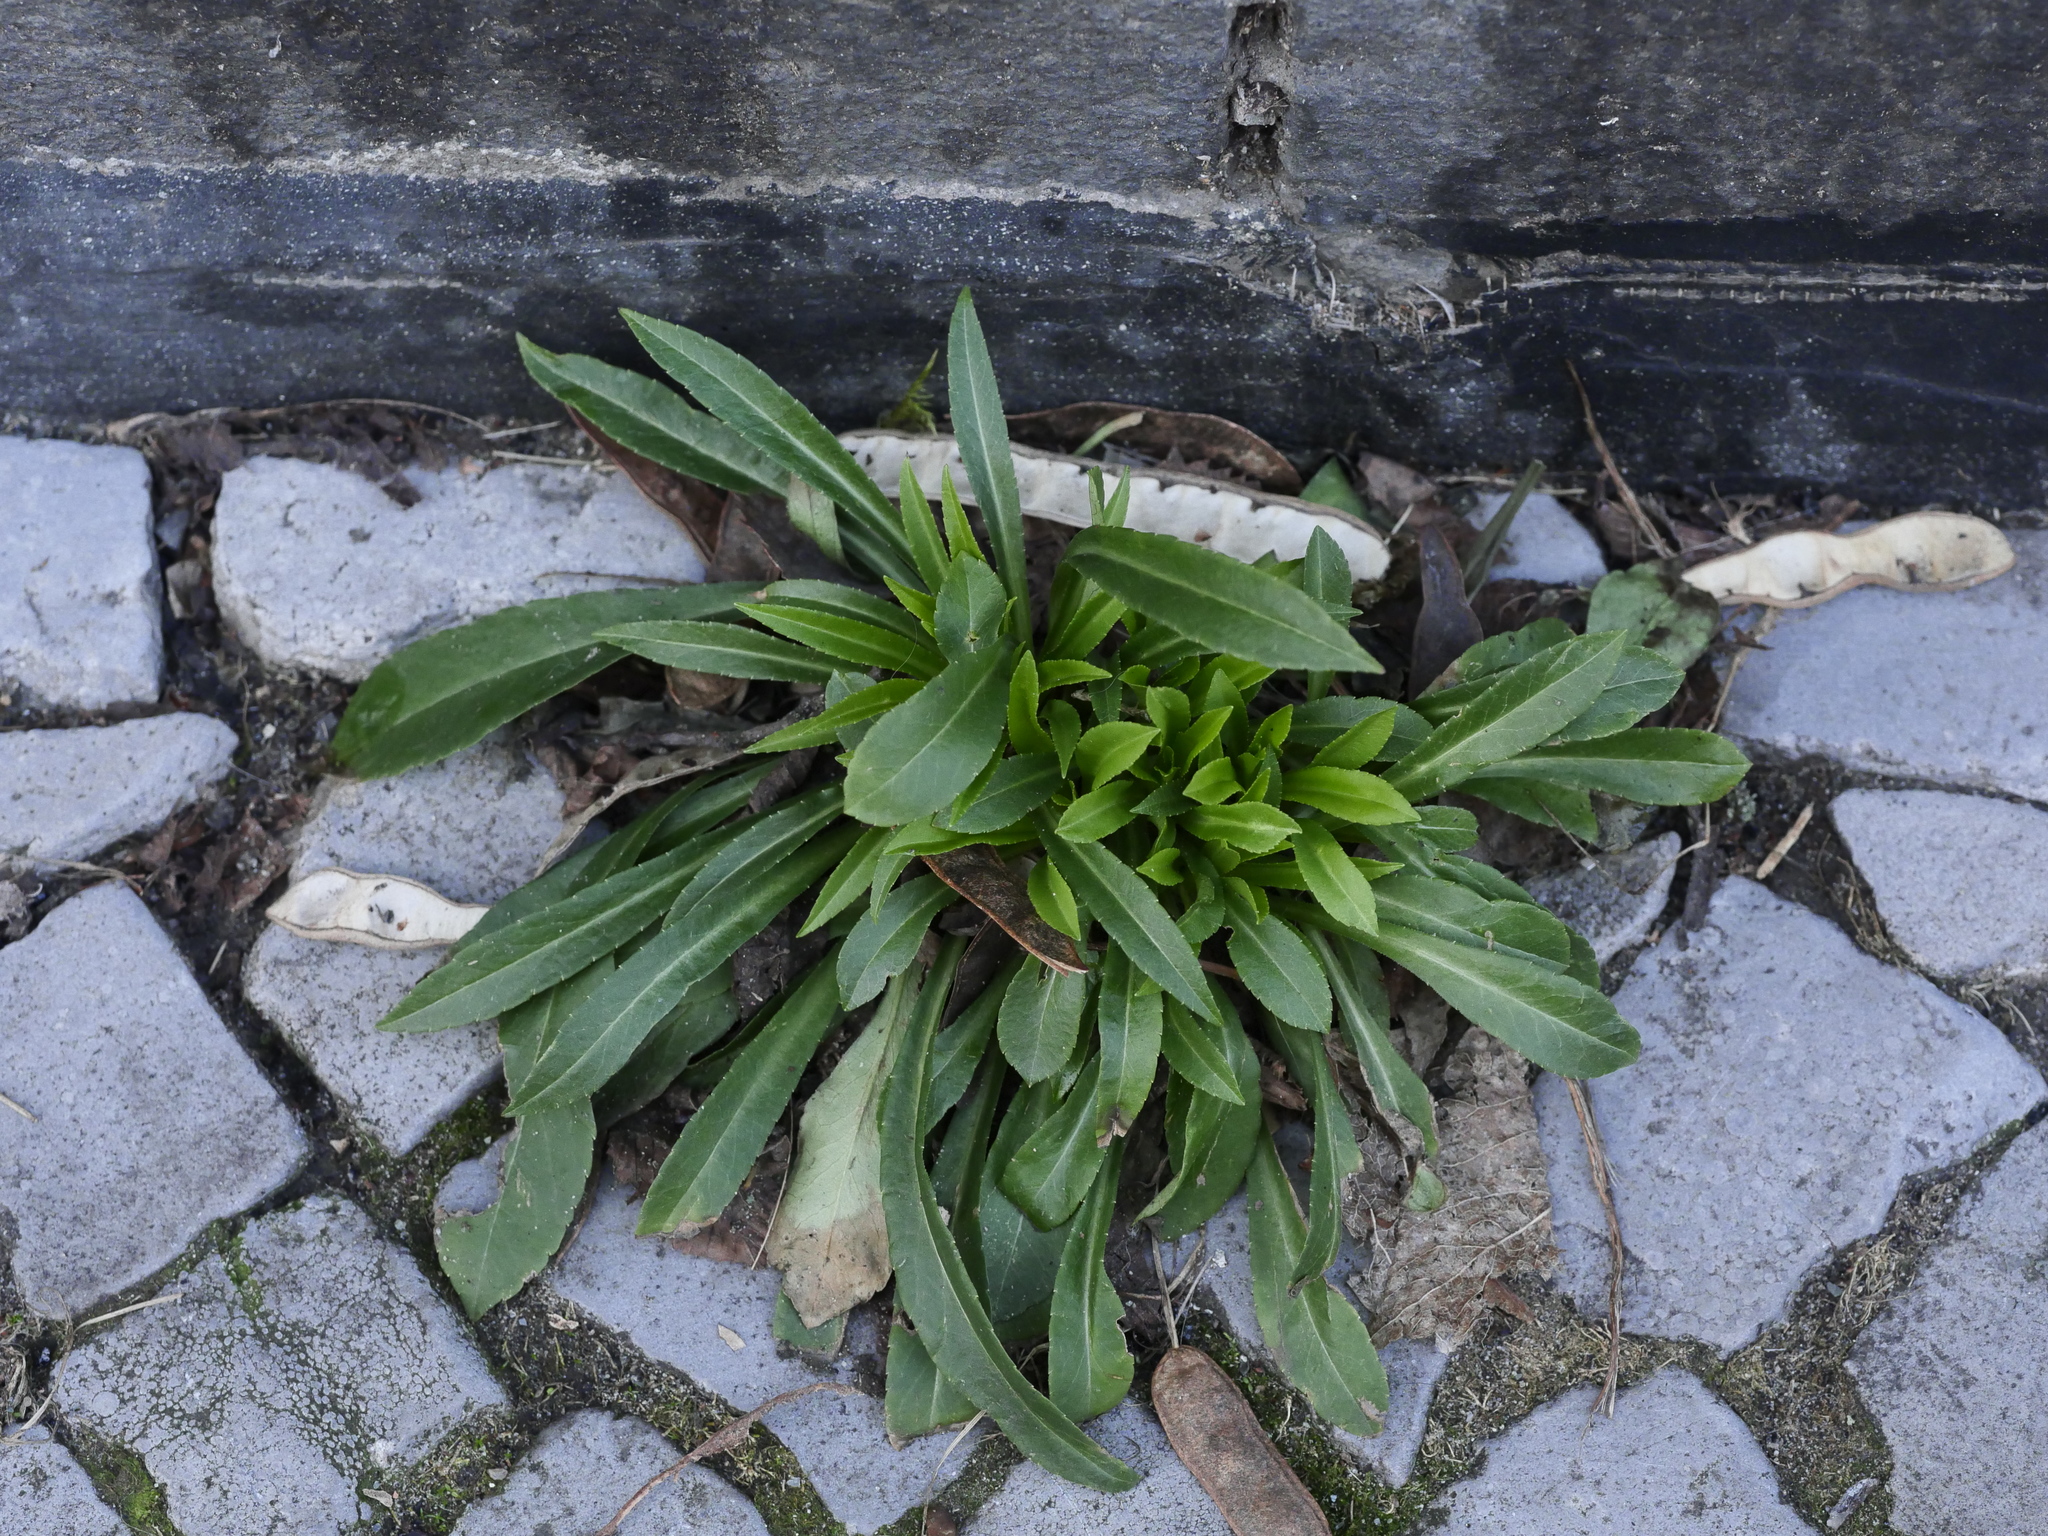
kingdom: Plantae
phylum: Tracheophyta
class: Magnoliopsida
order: Asterales
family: Campanulaceae
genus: Campanula
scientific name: Campanula persicifolia
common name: Peach-leaved bellflower
